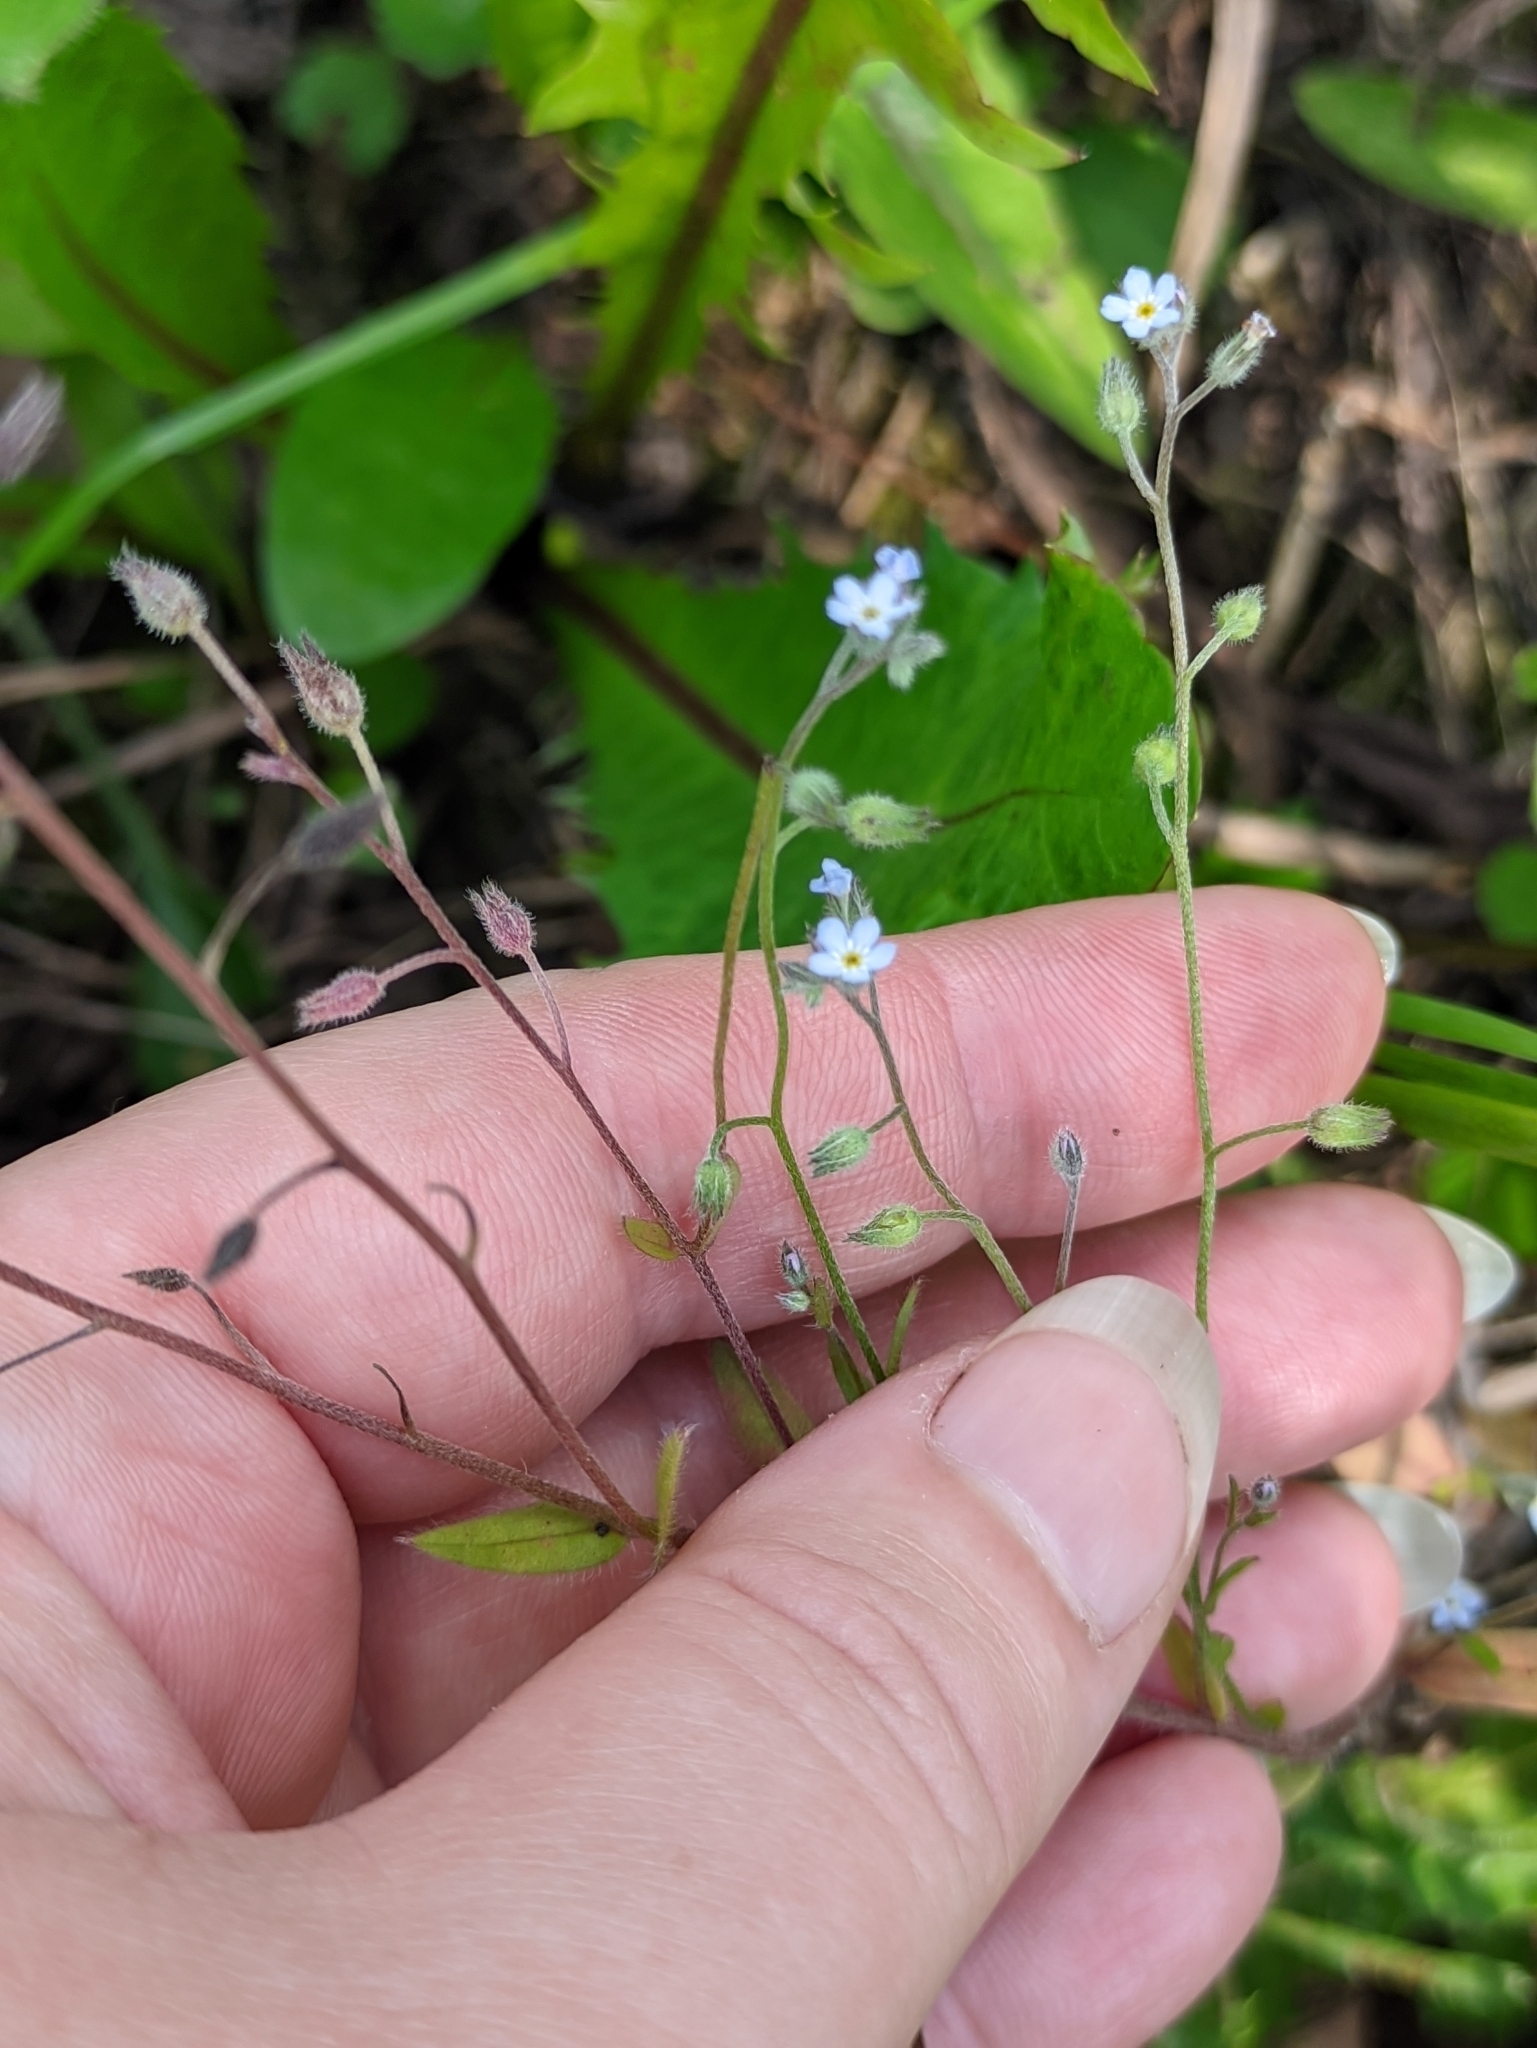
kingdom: Plantae
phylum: Tracheophyta
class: Magnoliopsida
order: Boraginales
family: Boraginaceae
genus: Myosotis
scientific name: Myosotis arvensis
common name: Field forget-me-not
